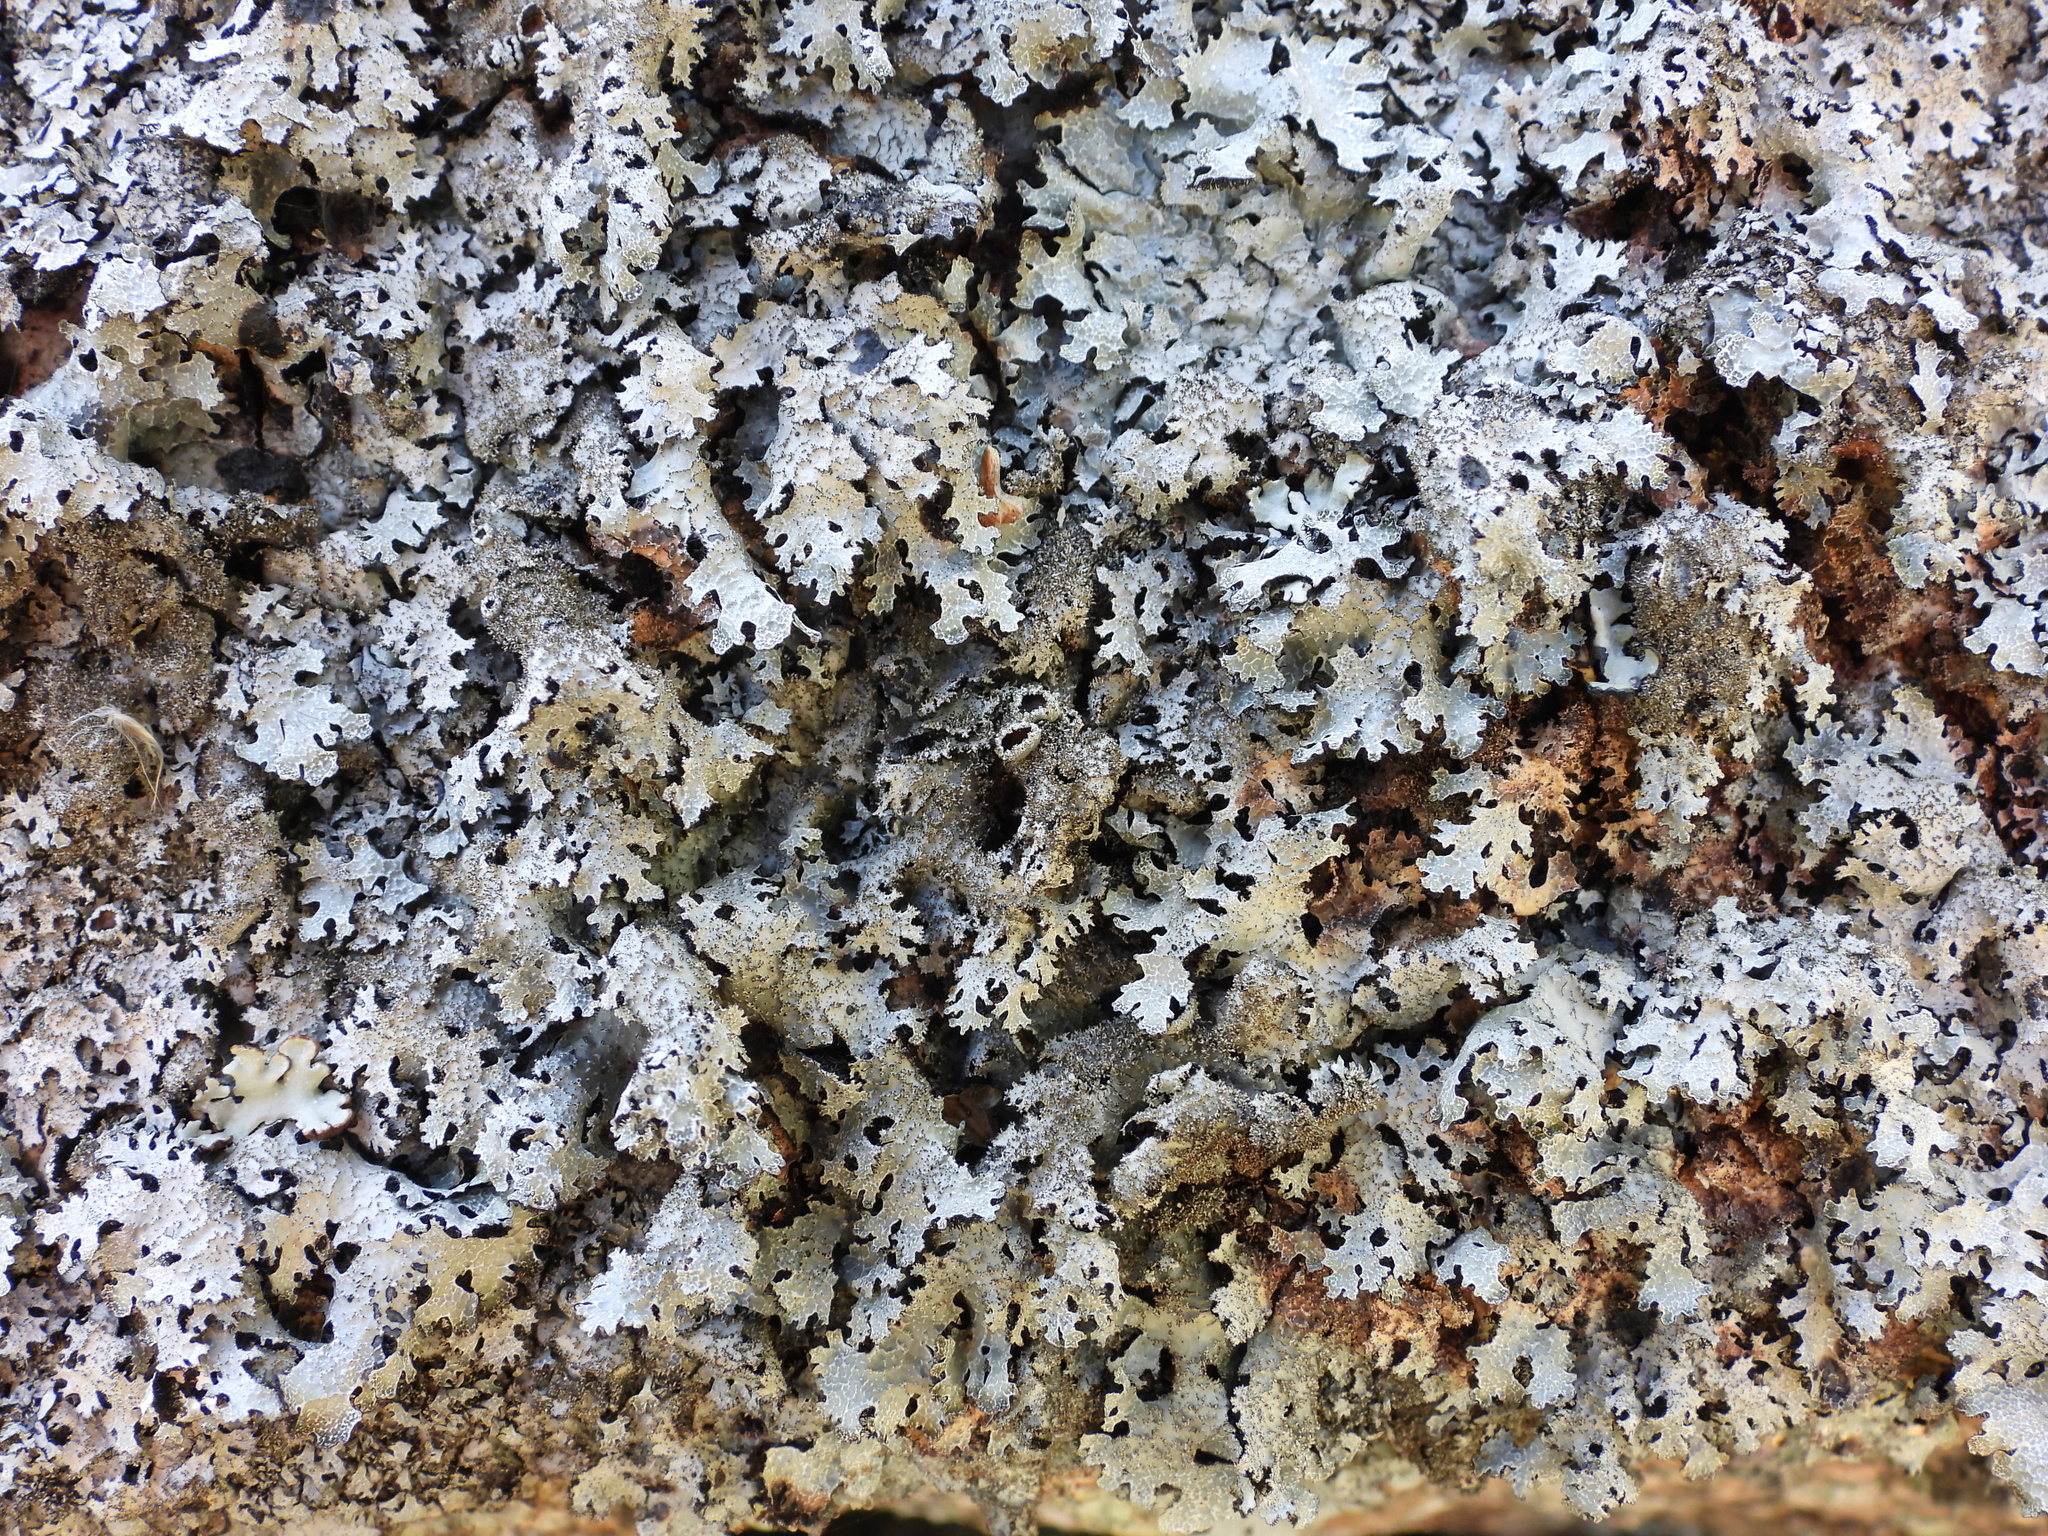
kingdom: Fungi
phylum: Ascomycota
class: Lecanoromycetes
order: Lecanorales
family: Parmeliaceae
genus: Parmelia
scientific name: Parmelia saxatilis
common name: Salted shield lichen
